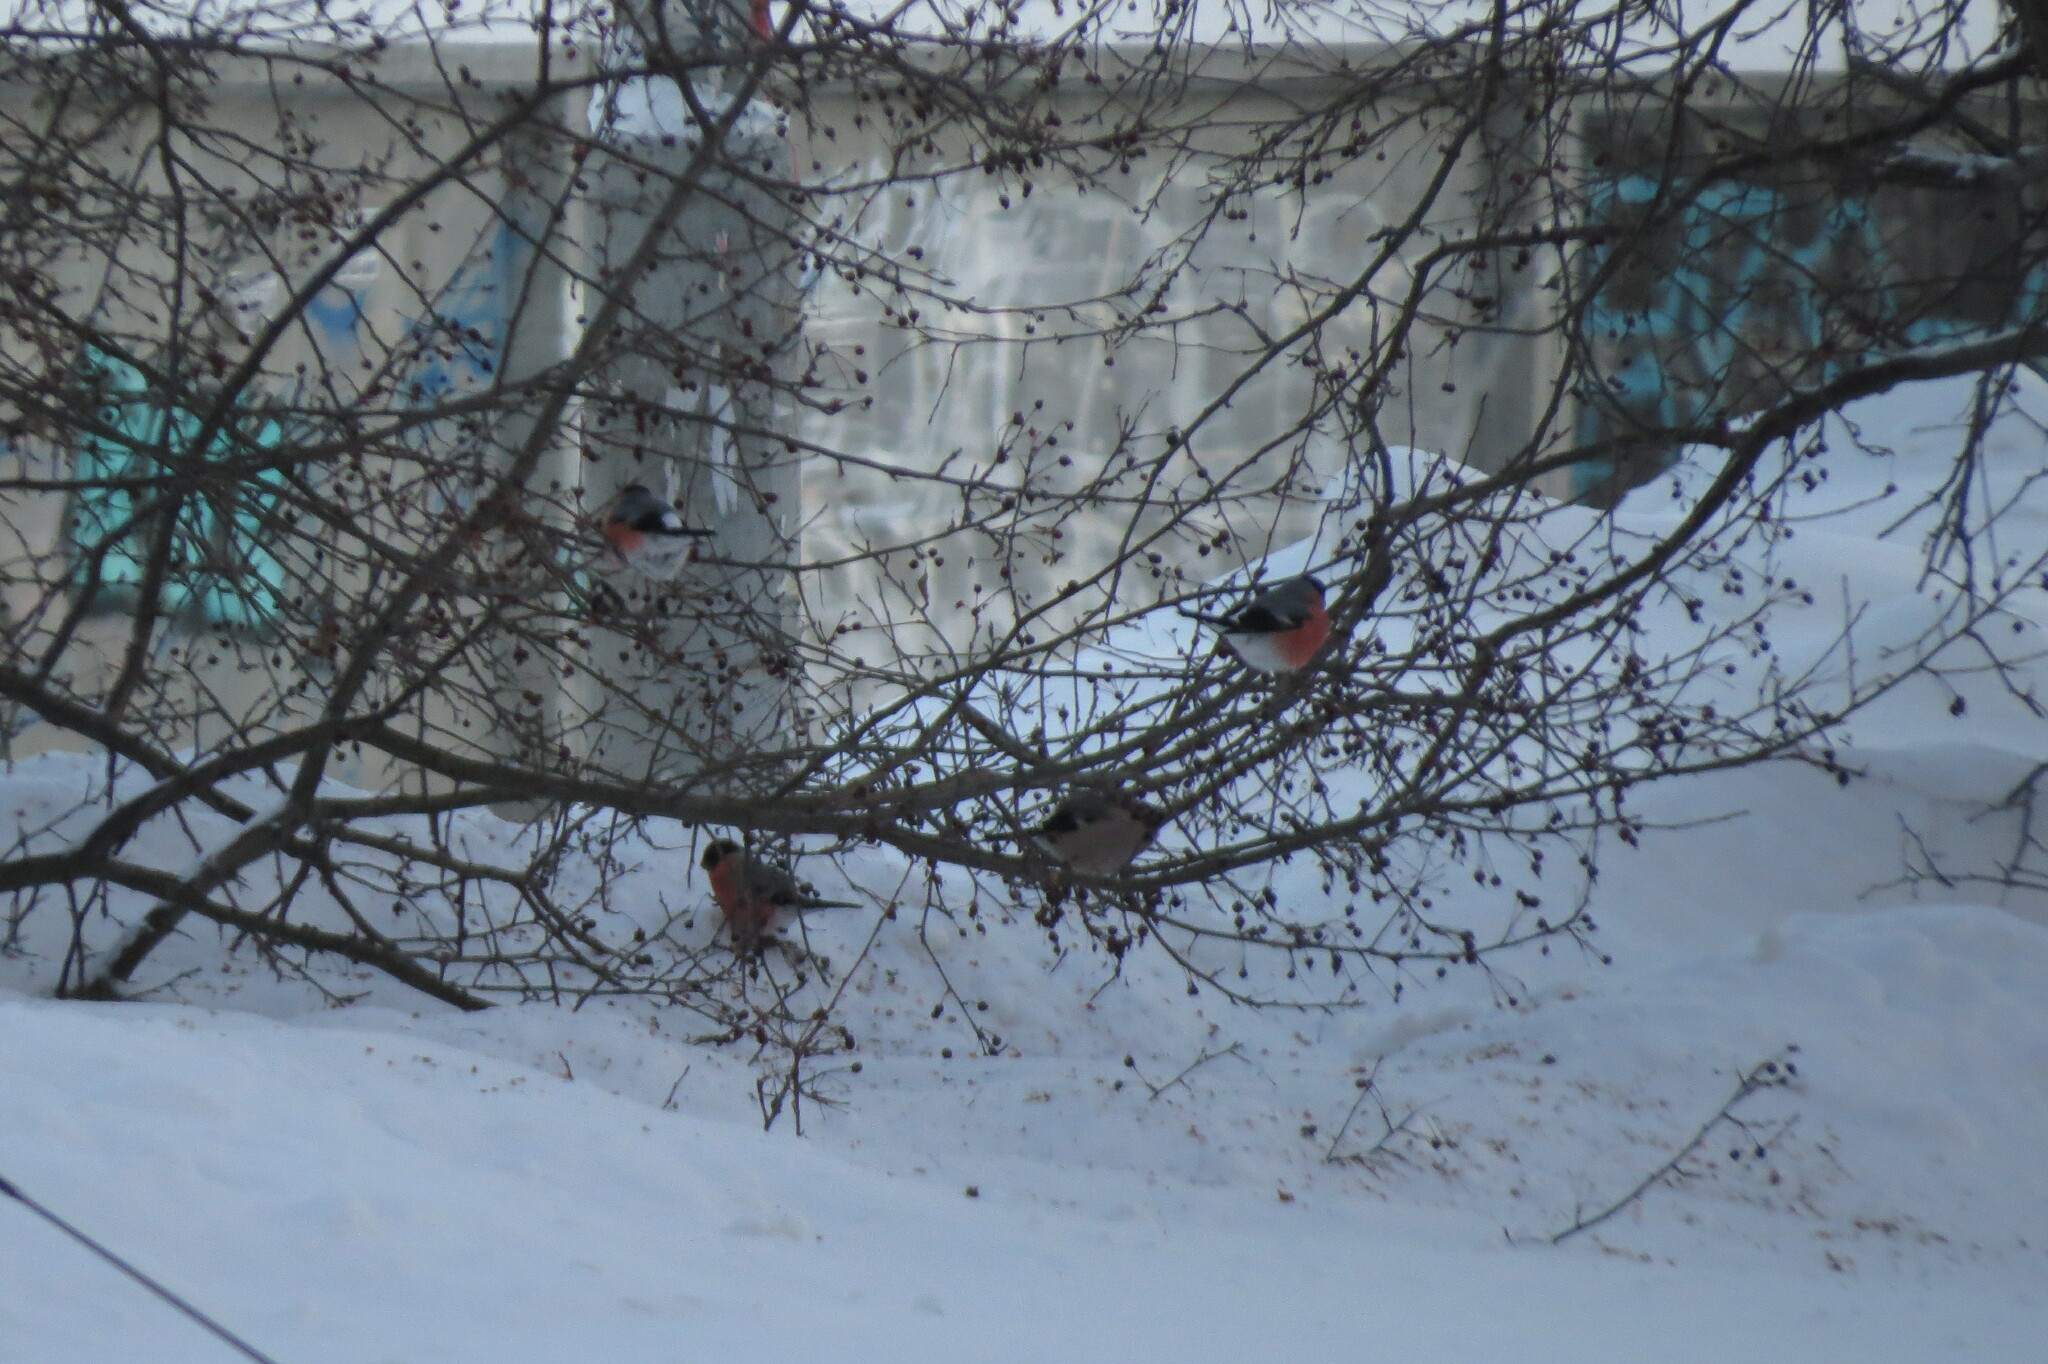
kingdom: Animalia
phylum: Chordata
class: Aves
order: Passeriformes
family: Fringillidae
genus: Pyrrhula
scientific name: Pyrrhula pyrrhula
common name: Eurasian bullfinch
